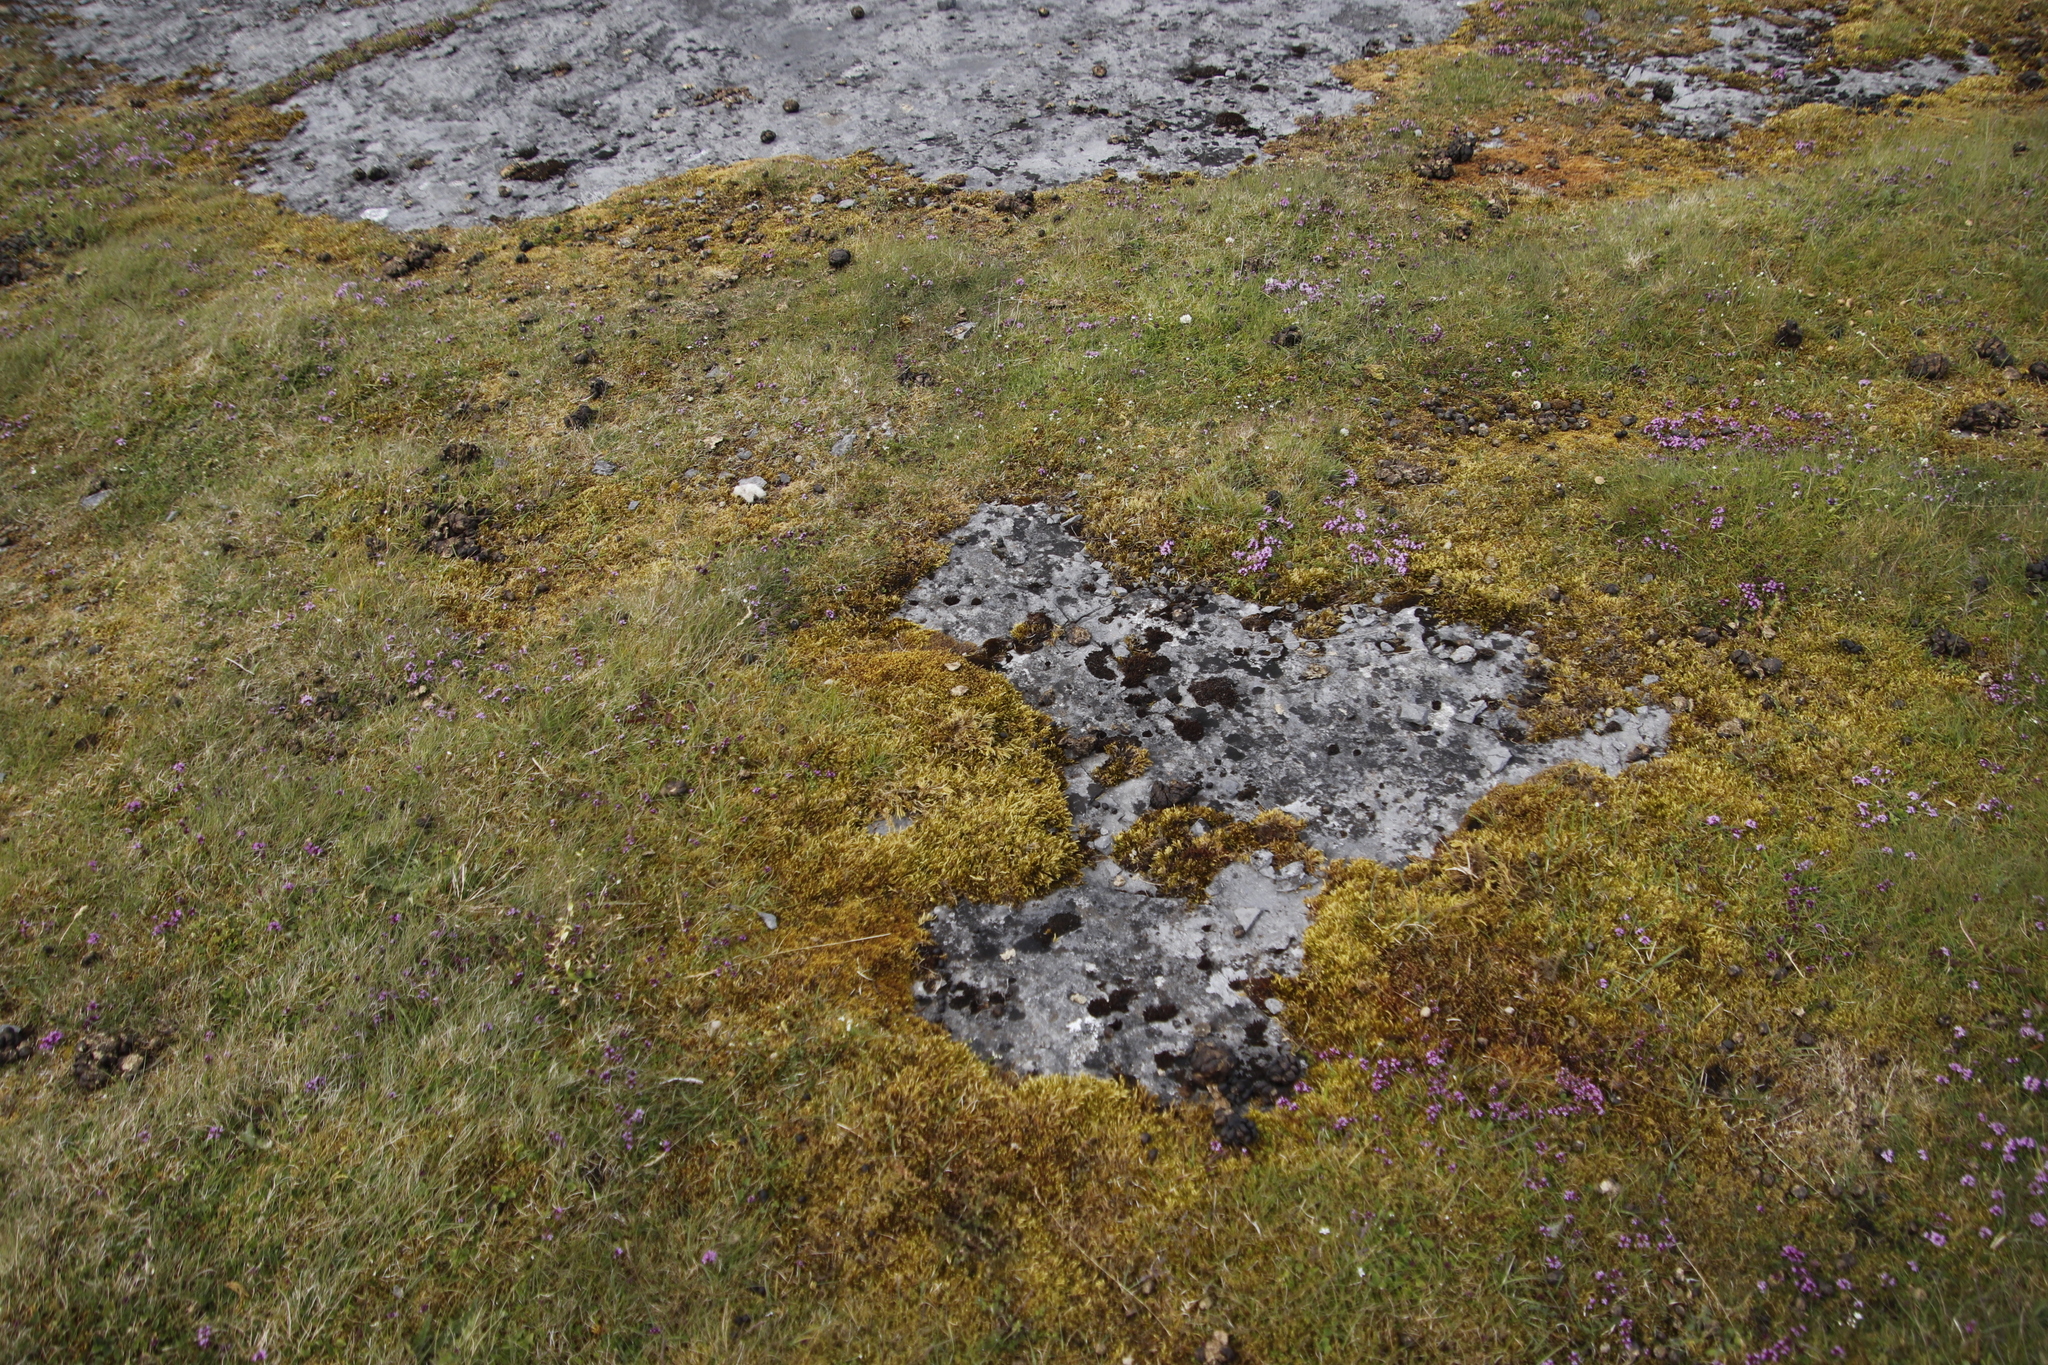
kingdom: Plantae
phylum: Bryophyta
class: Bryopsida
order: Hypnales
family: Hypnaceae
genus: Hypnum
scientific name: Hypnum cupressiforme
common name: Cypress-leaved plait-moss
